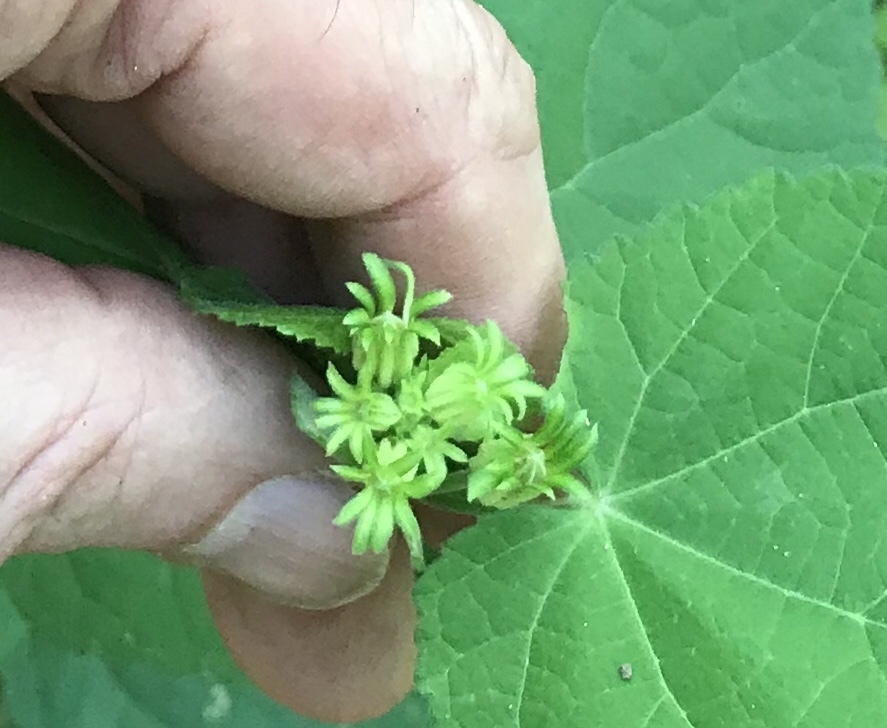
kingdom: Plantae
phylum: Tracheophyta
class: Magnoliopsida
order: Malvales
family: Malvaceae
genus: Malvaviscus
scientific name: Malvaviscus arboreus
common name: Wax mallow
